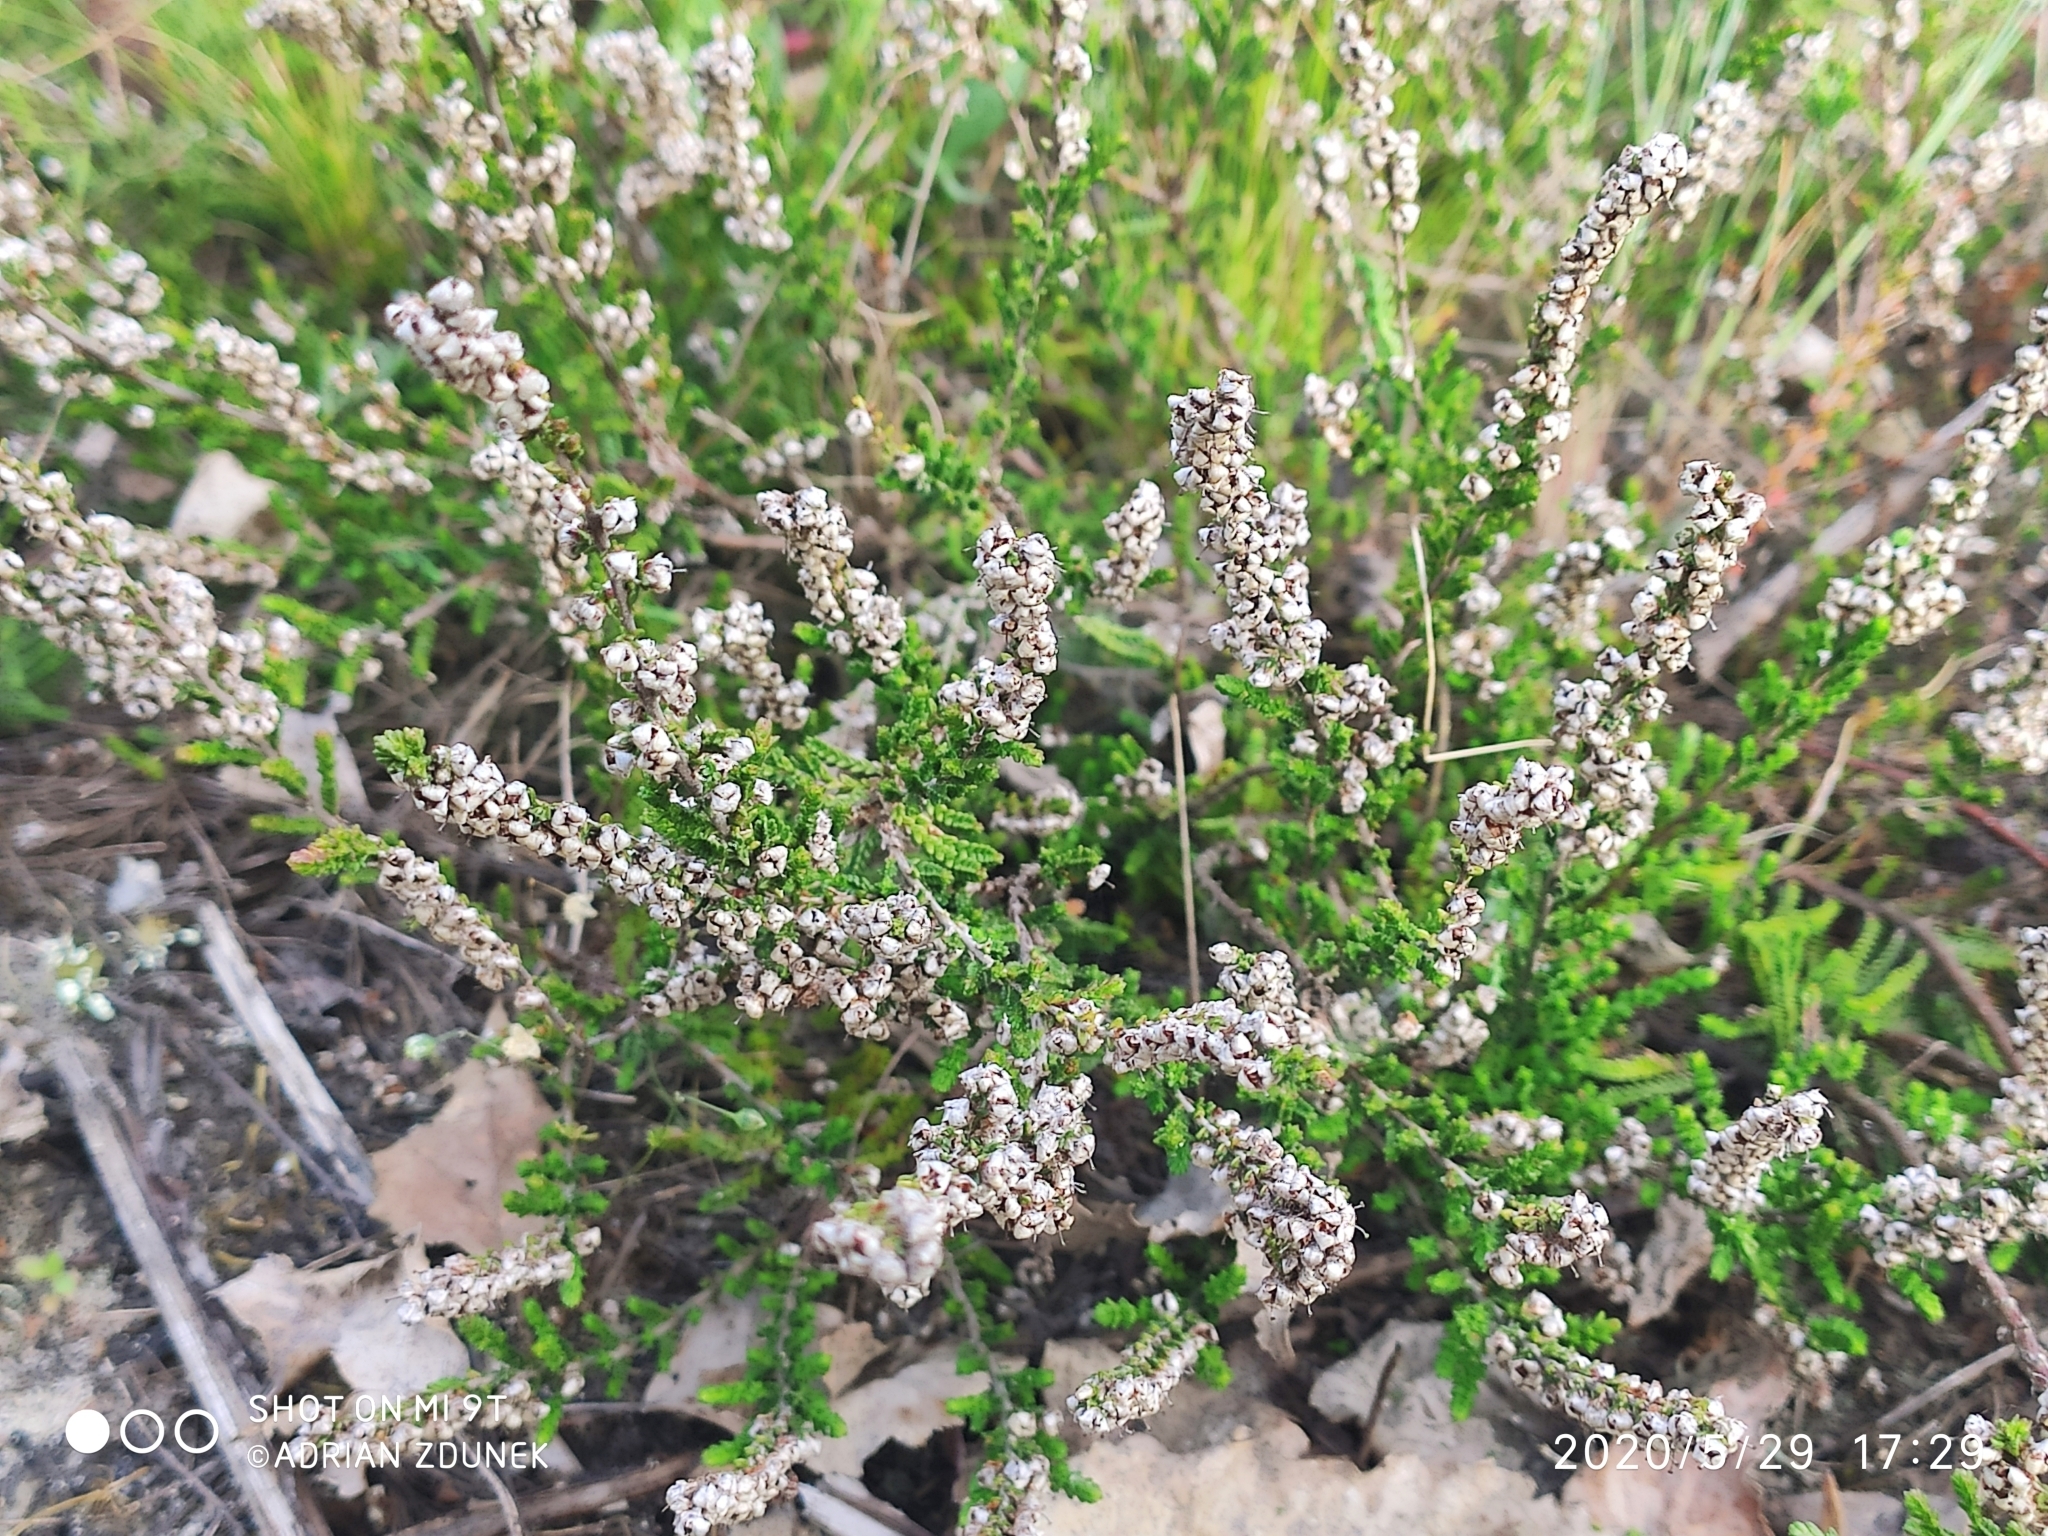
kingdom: Plantae
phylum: Tracheophyta
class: Magnoliopsida
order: Ericales
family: Ericaceae
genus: Calluna
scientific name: Calluna vulgaris
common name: Heather
